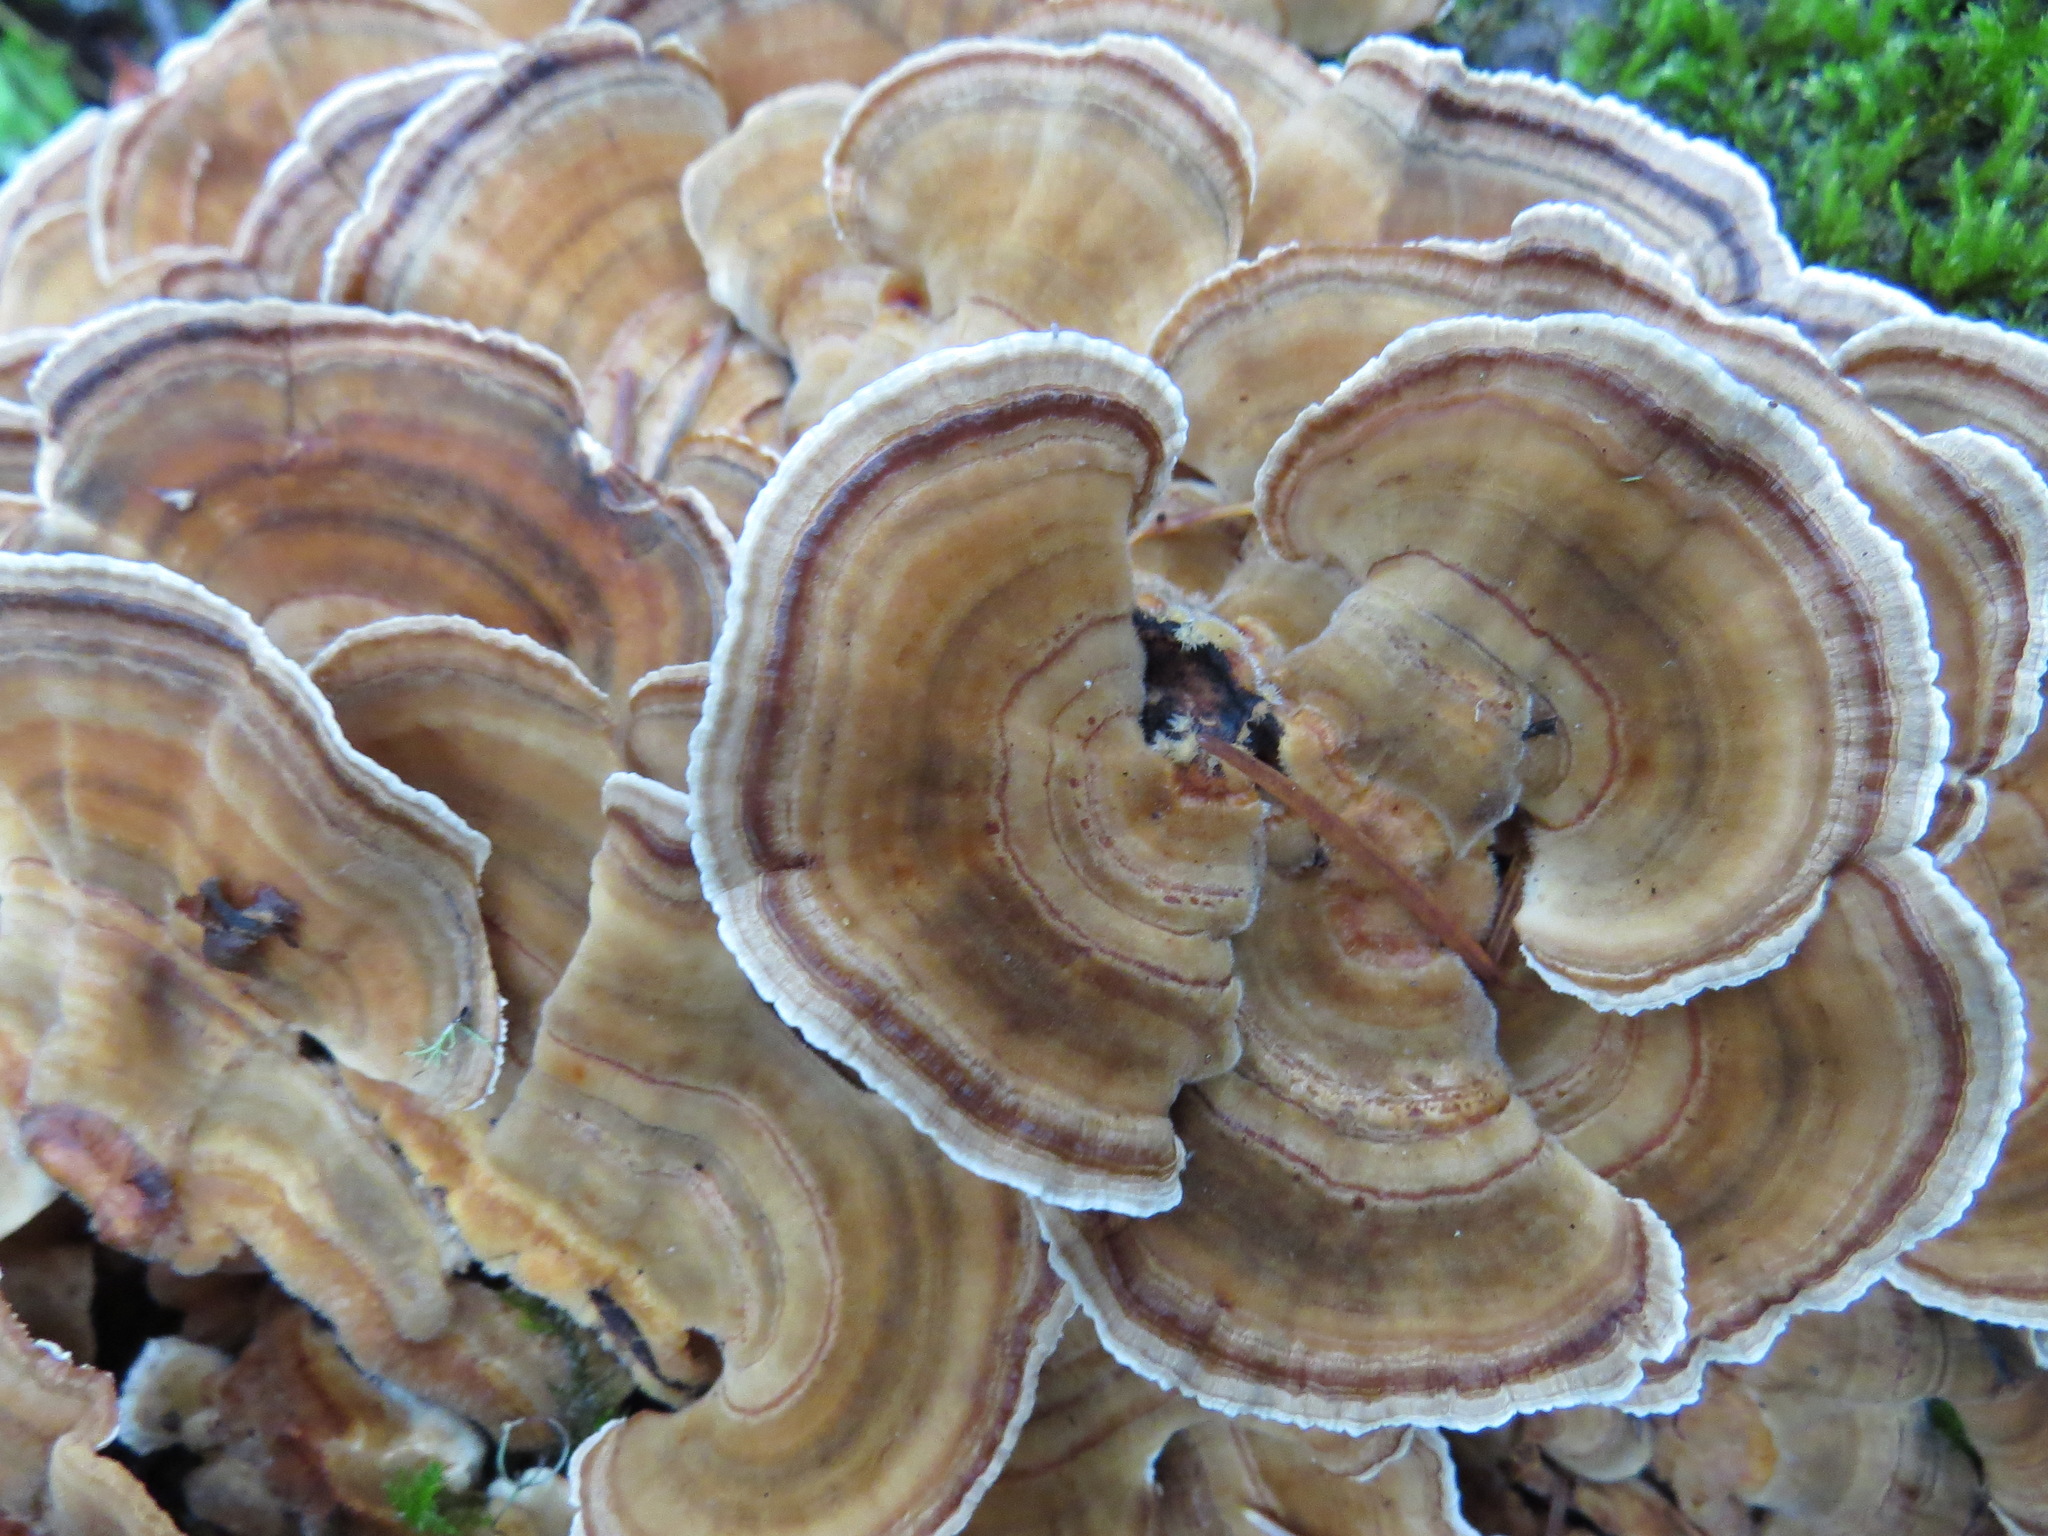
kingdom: Fungi
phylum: Basidiomycota
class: Agaricomycetes
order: Polyporales
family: Polyporaceae
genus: Trametes
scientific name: Trametes versicolor
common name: Turkeytail
